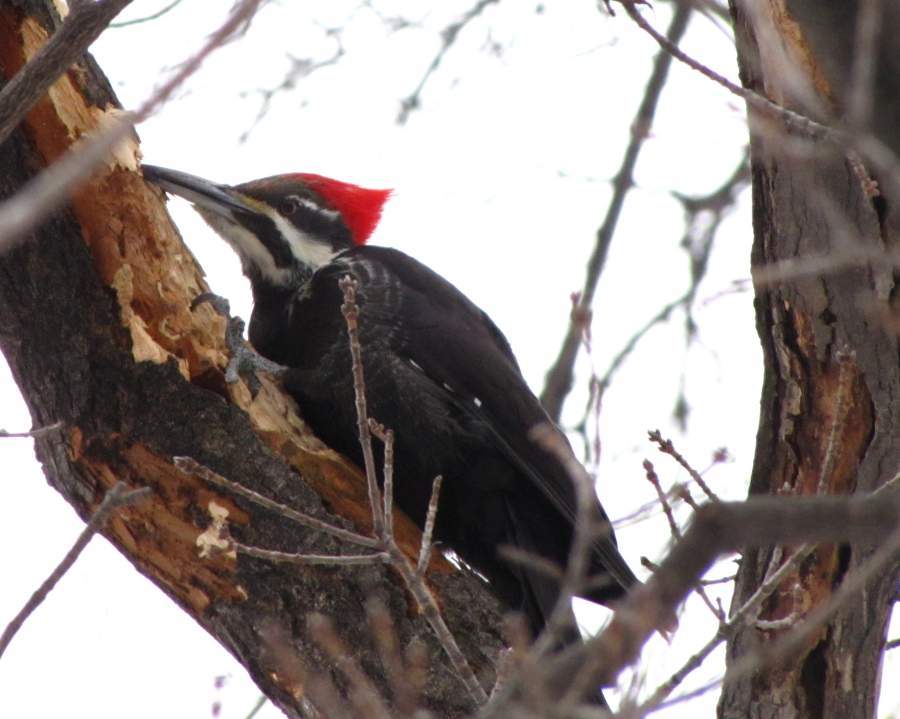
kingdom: Animalia
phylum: Chordata
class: Aves
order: Piciformes
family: Picidae
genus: Dryocopus
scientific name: Dryocopus pileatus
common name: Pileated woodpecker
